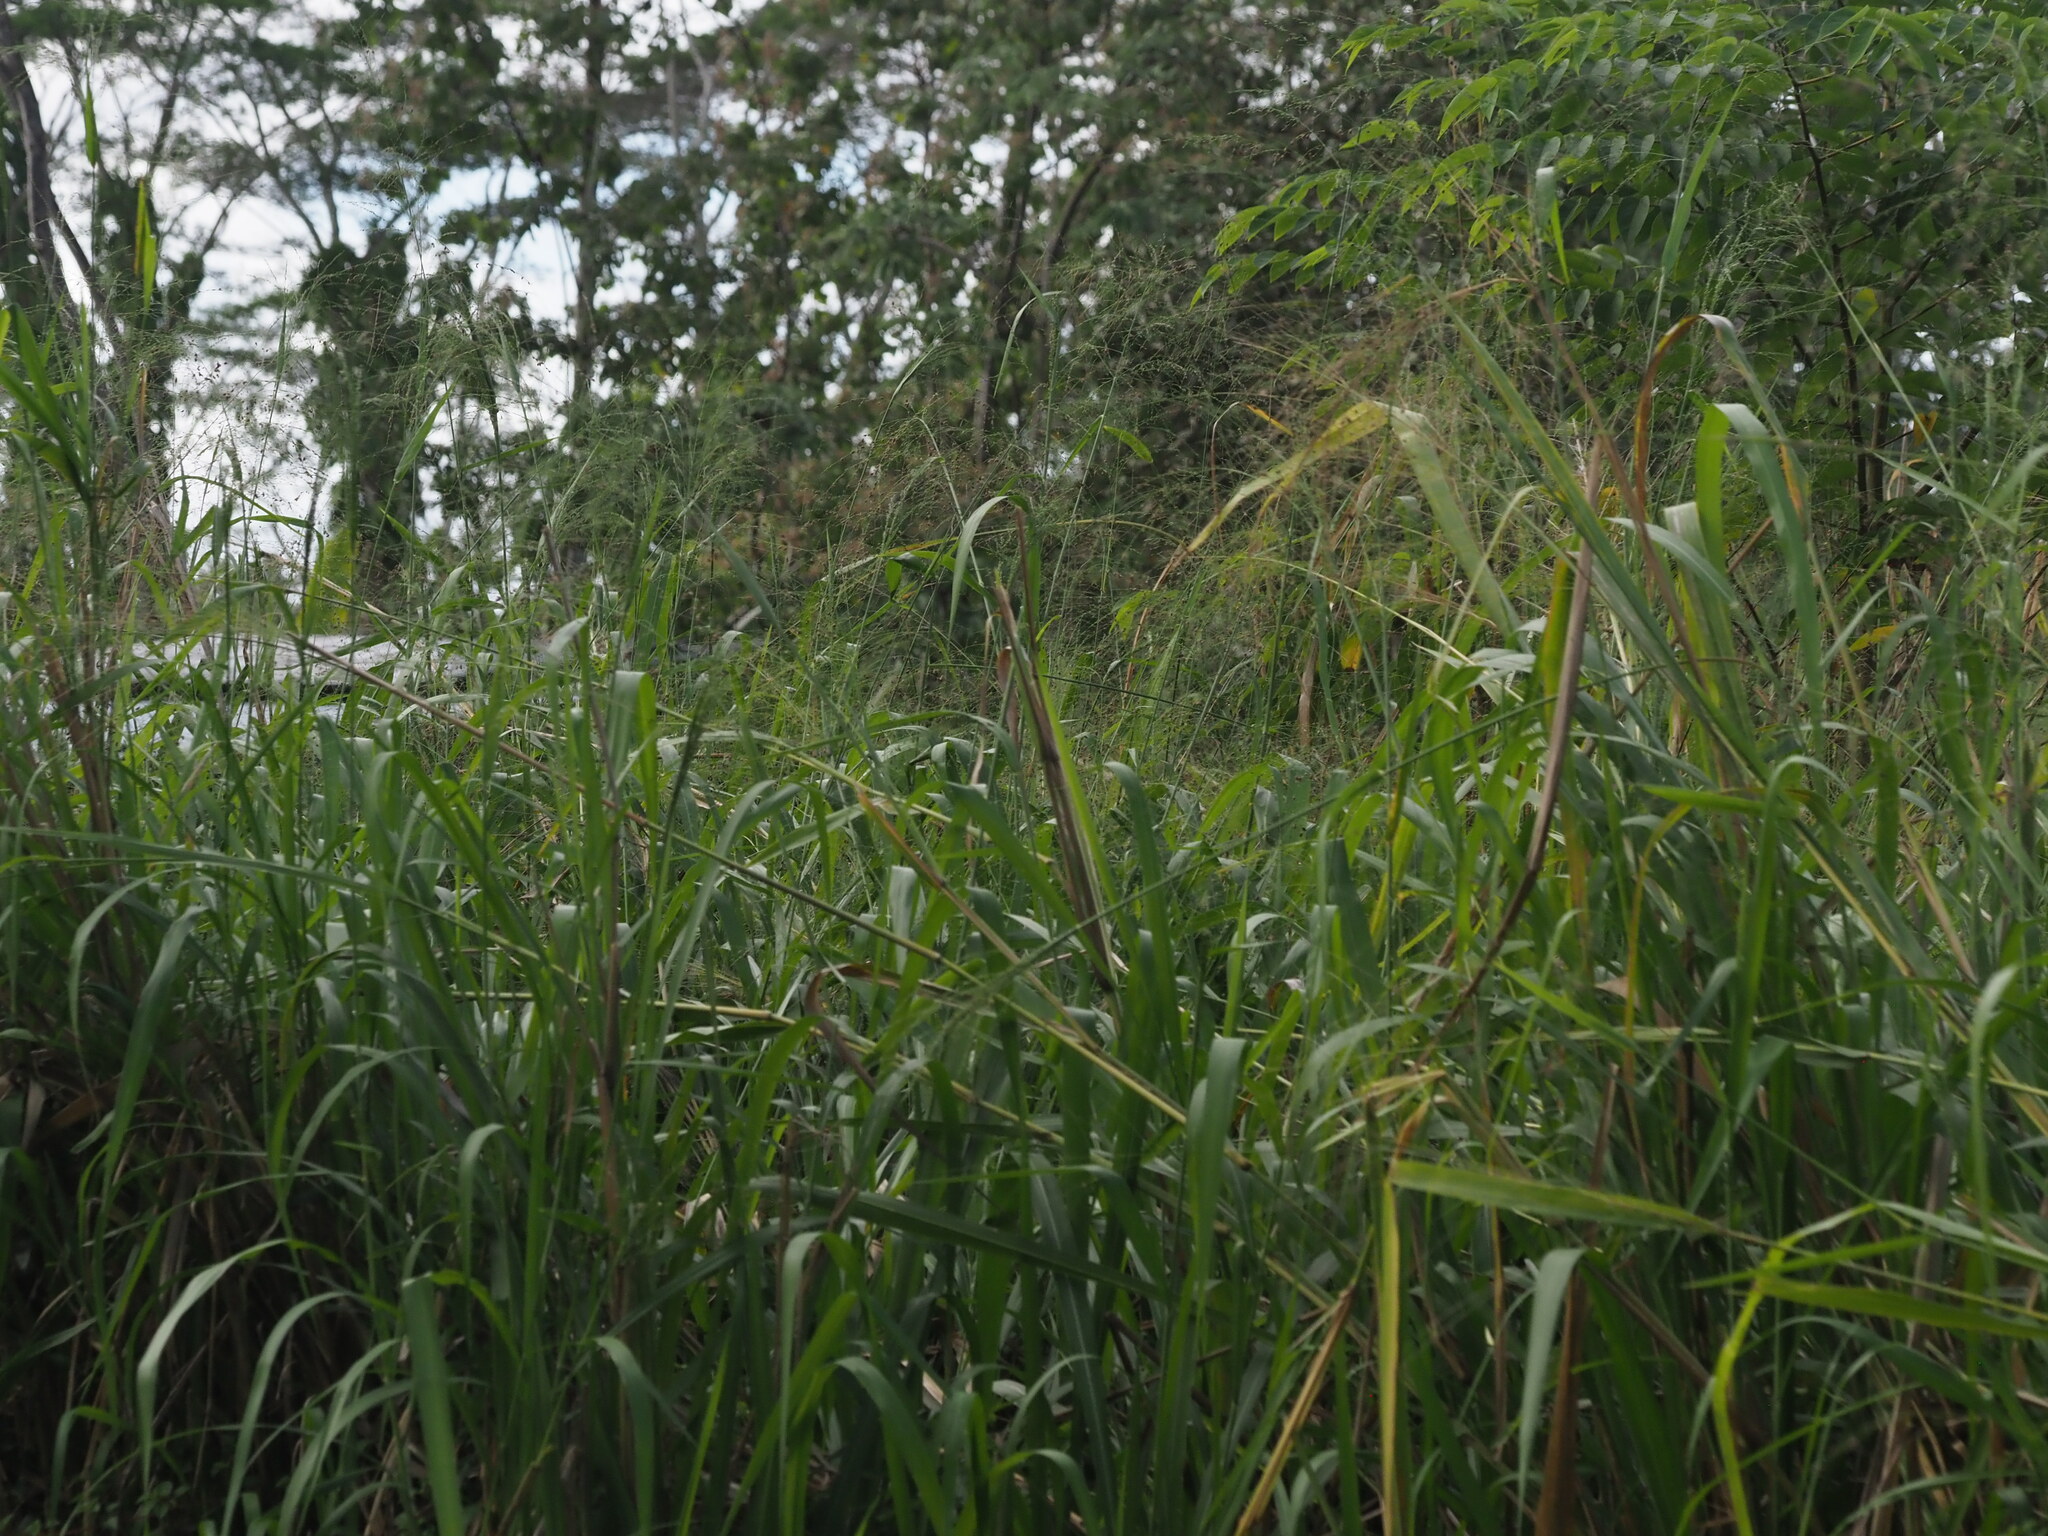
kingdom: Plantae
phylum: Tracheophyta
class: Liliopsida
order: Poales
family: Poaceae
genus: Megathyrsus
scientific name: Megathyrsus maximus
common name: Guineagrass
